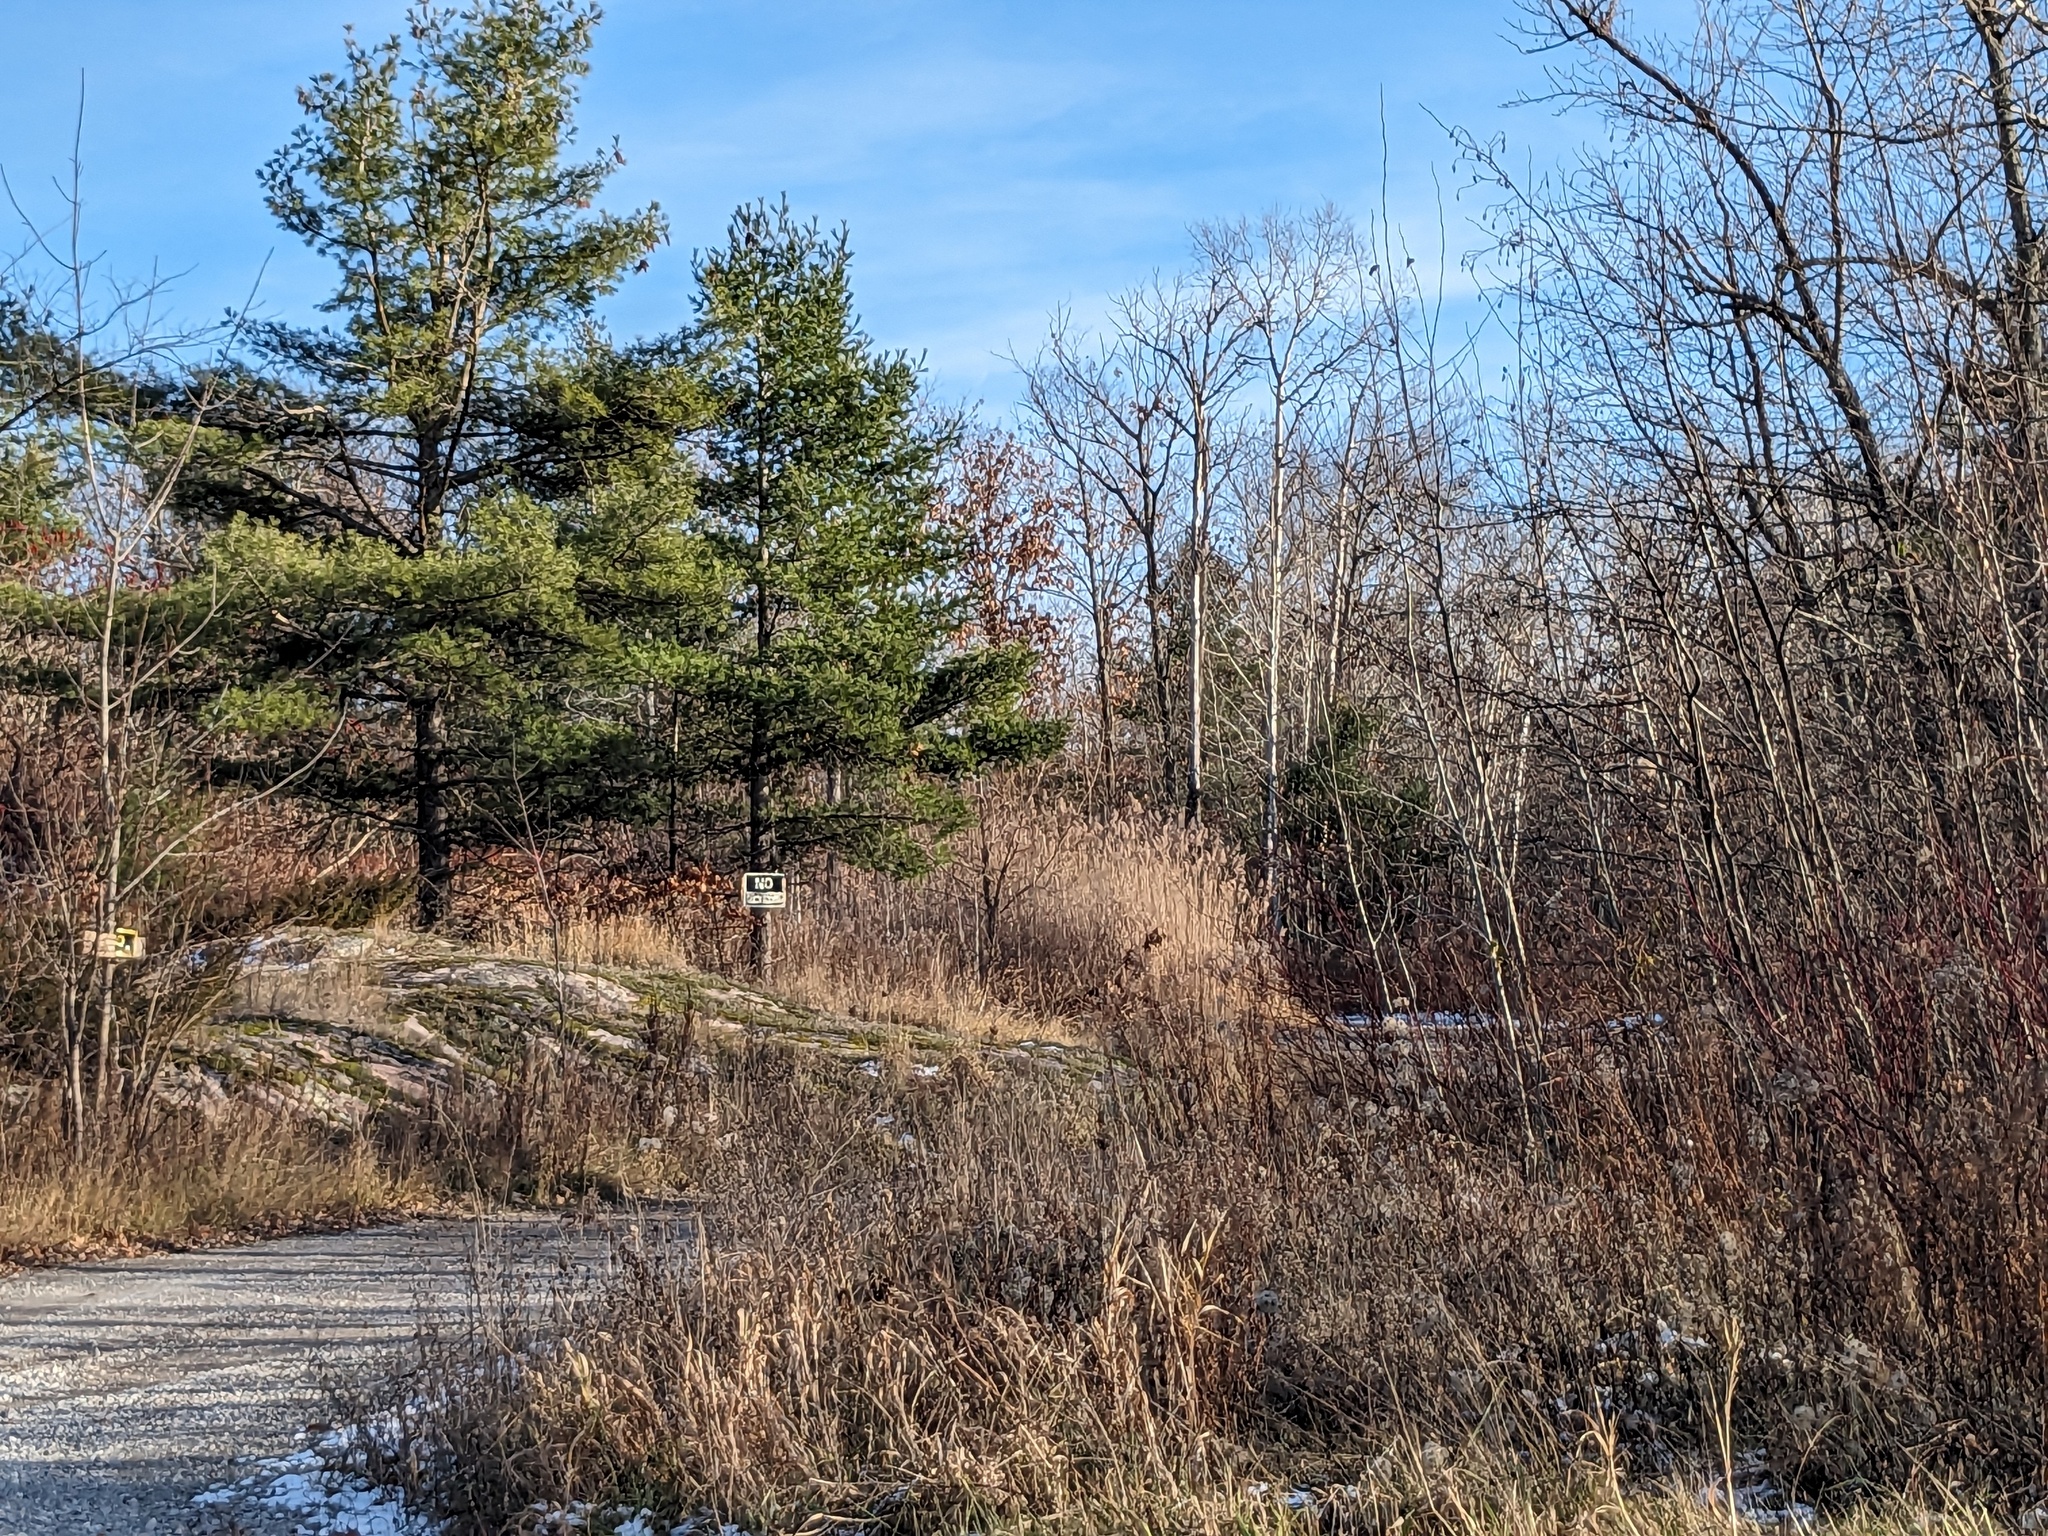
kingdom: Plantae
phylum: Tracheophyta
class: Liliopsida
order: Poales
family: Poaceae
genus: Phragmites
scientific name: Phragmites australis
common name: Common reed
